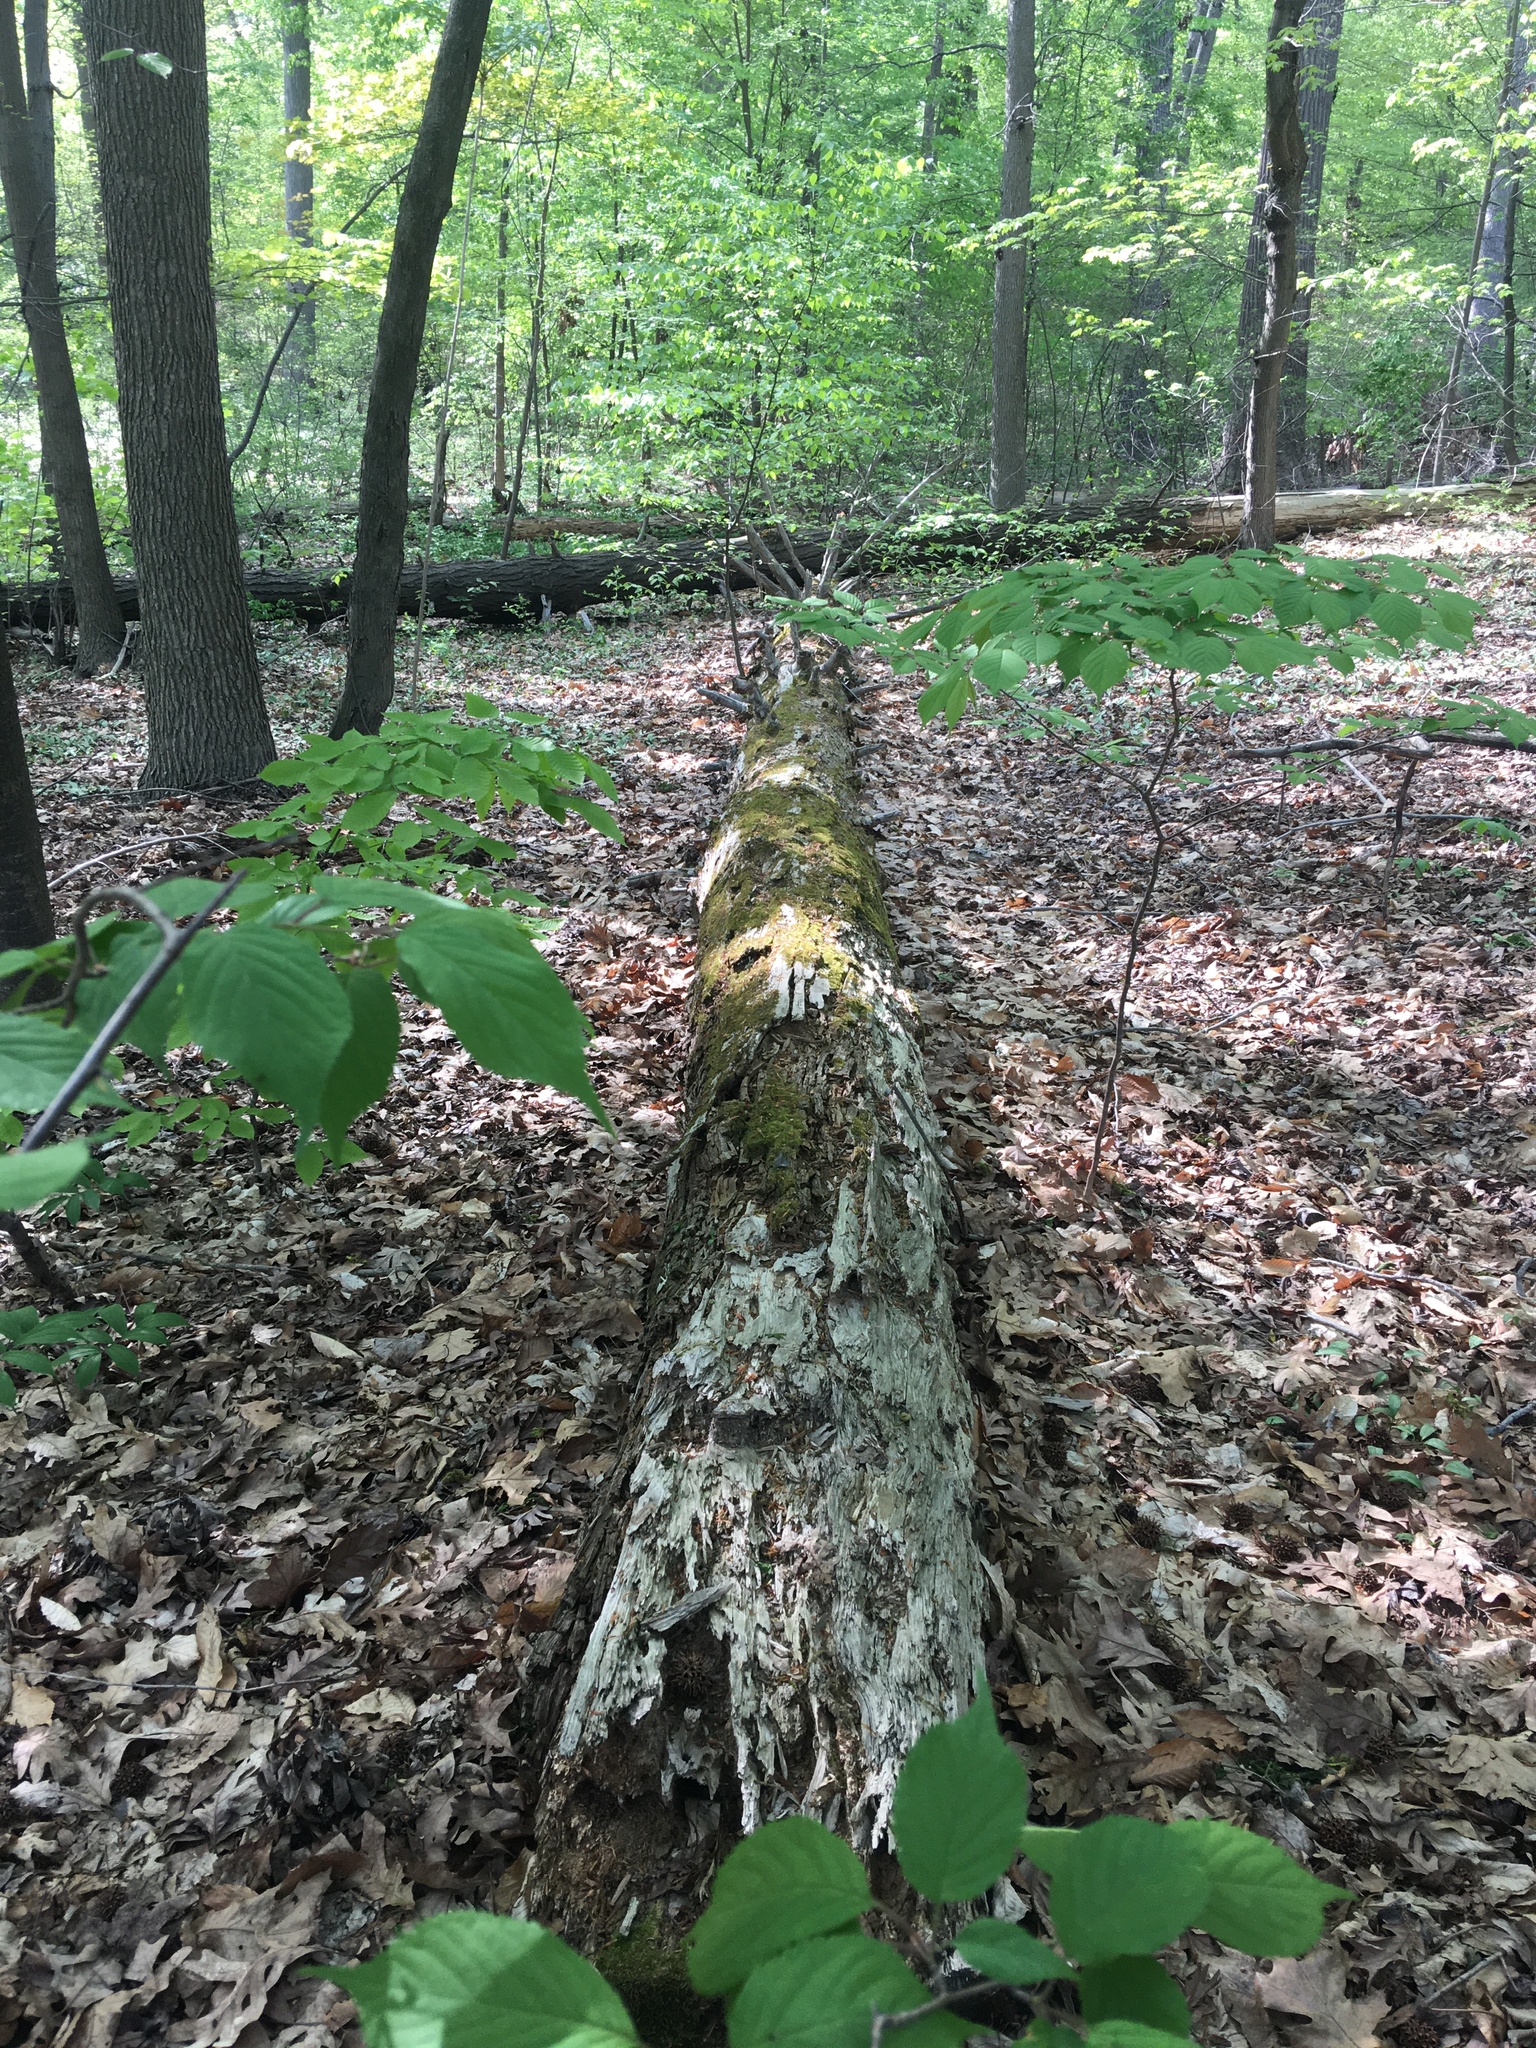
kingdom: Plantae
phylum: Tracheophyta
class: Pinopsida
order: Pinales
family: Pinaceae
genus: Tsuga
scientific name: Tsuga canadensis
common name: Eastern hemlock
